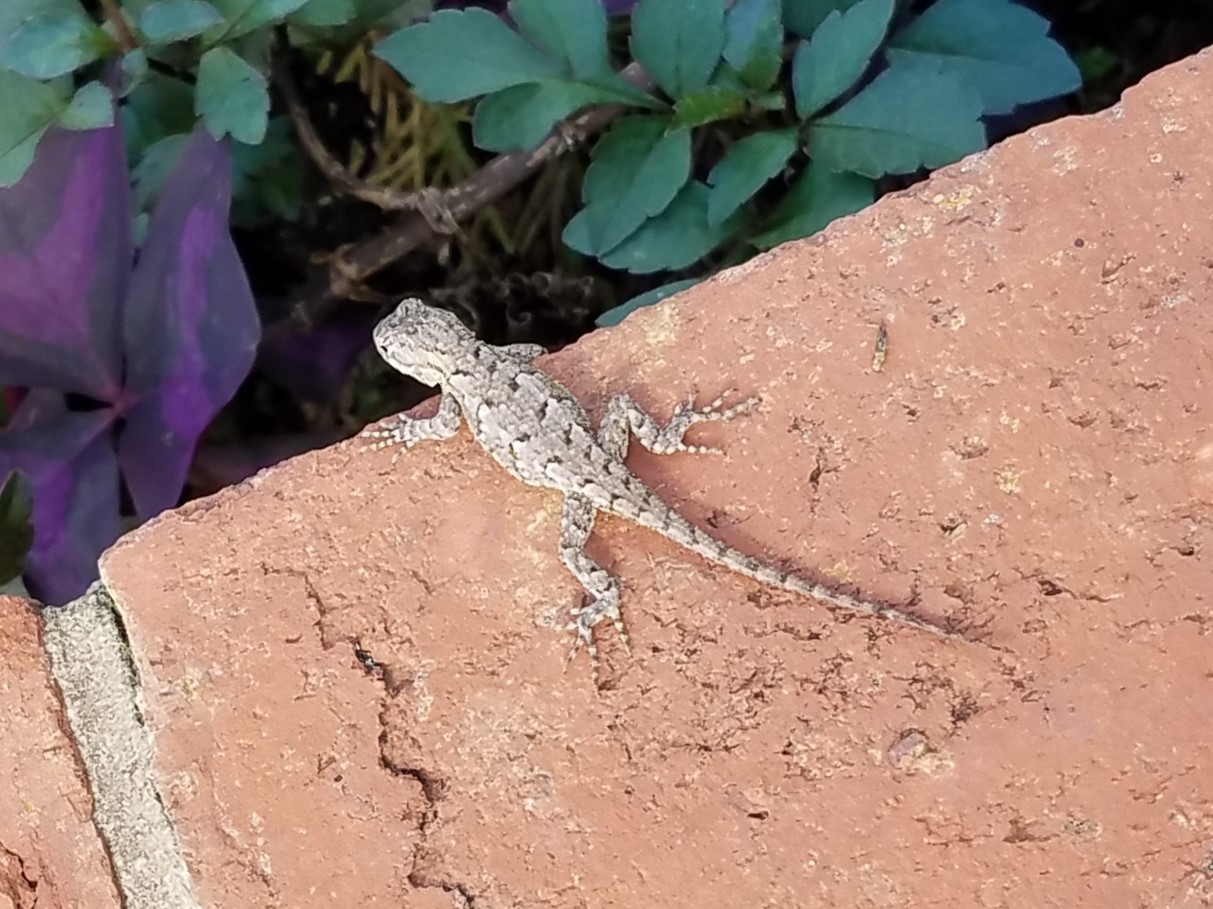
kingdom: Animalia
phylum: Chordata
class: Squamata
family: Phrynosomatidae
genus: Sceloporus
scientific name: Sceloporus undulatus
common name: Eastern fence lizard
